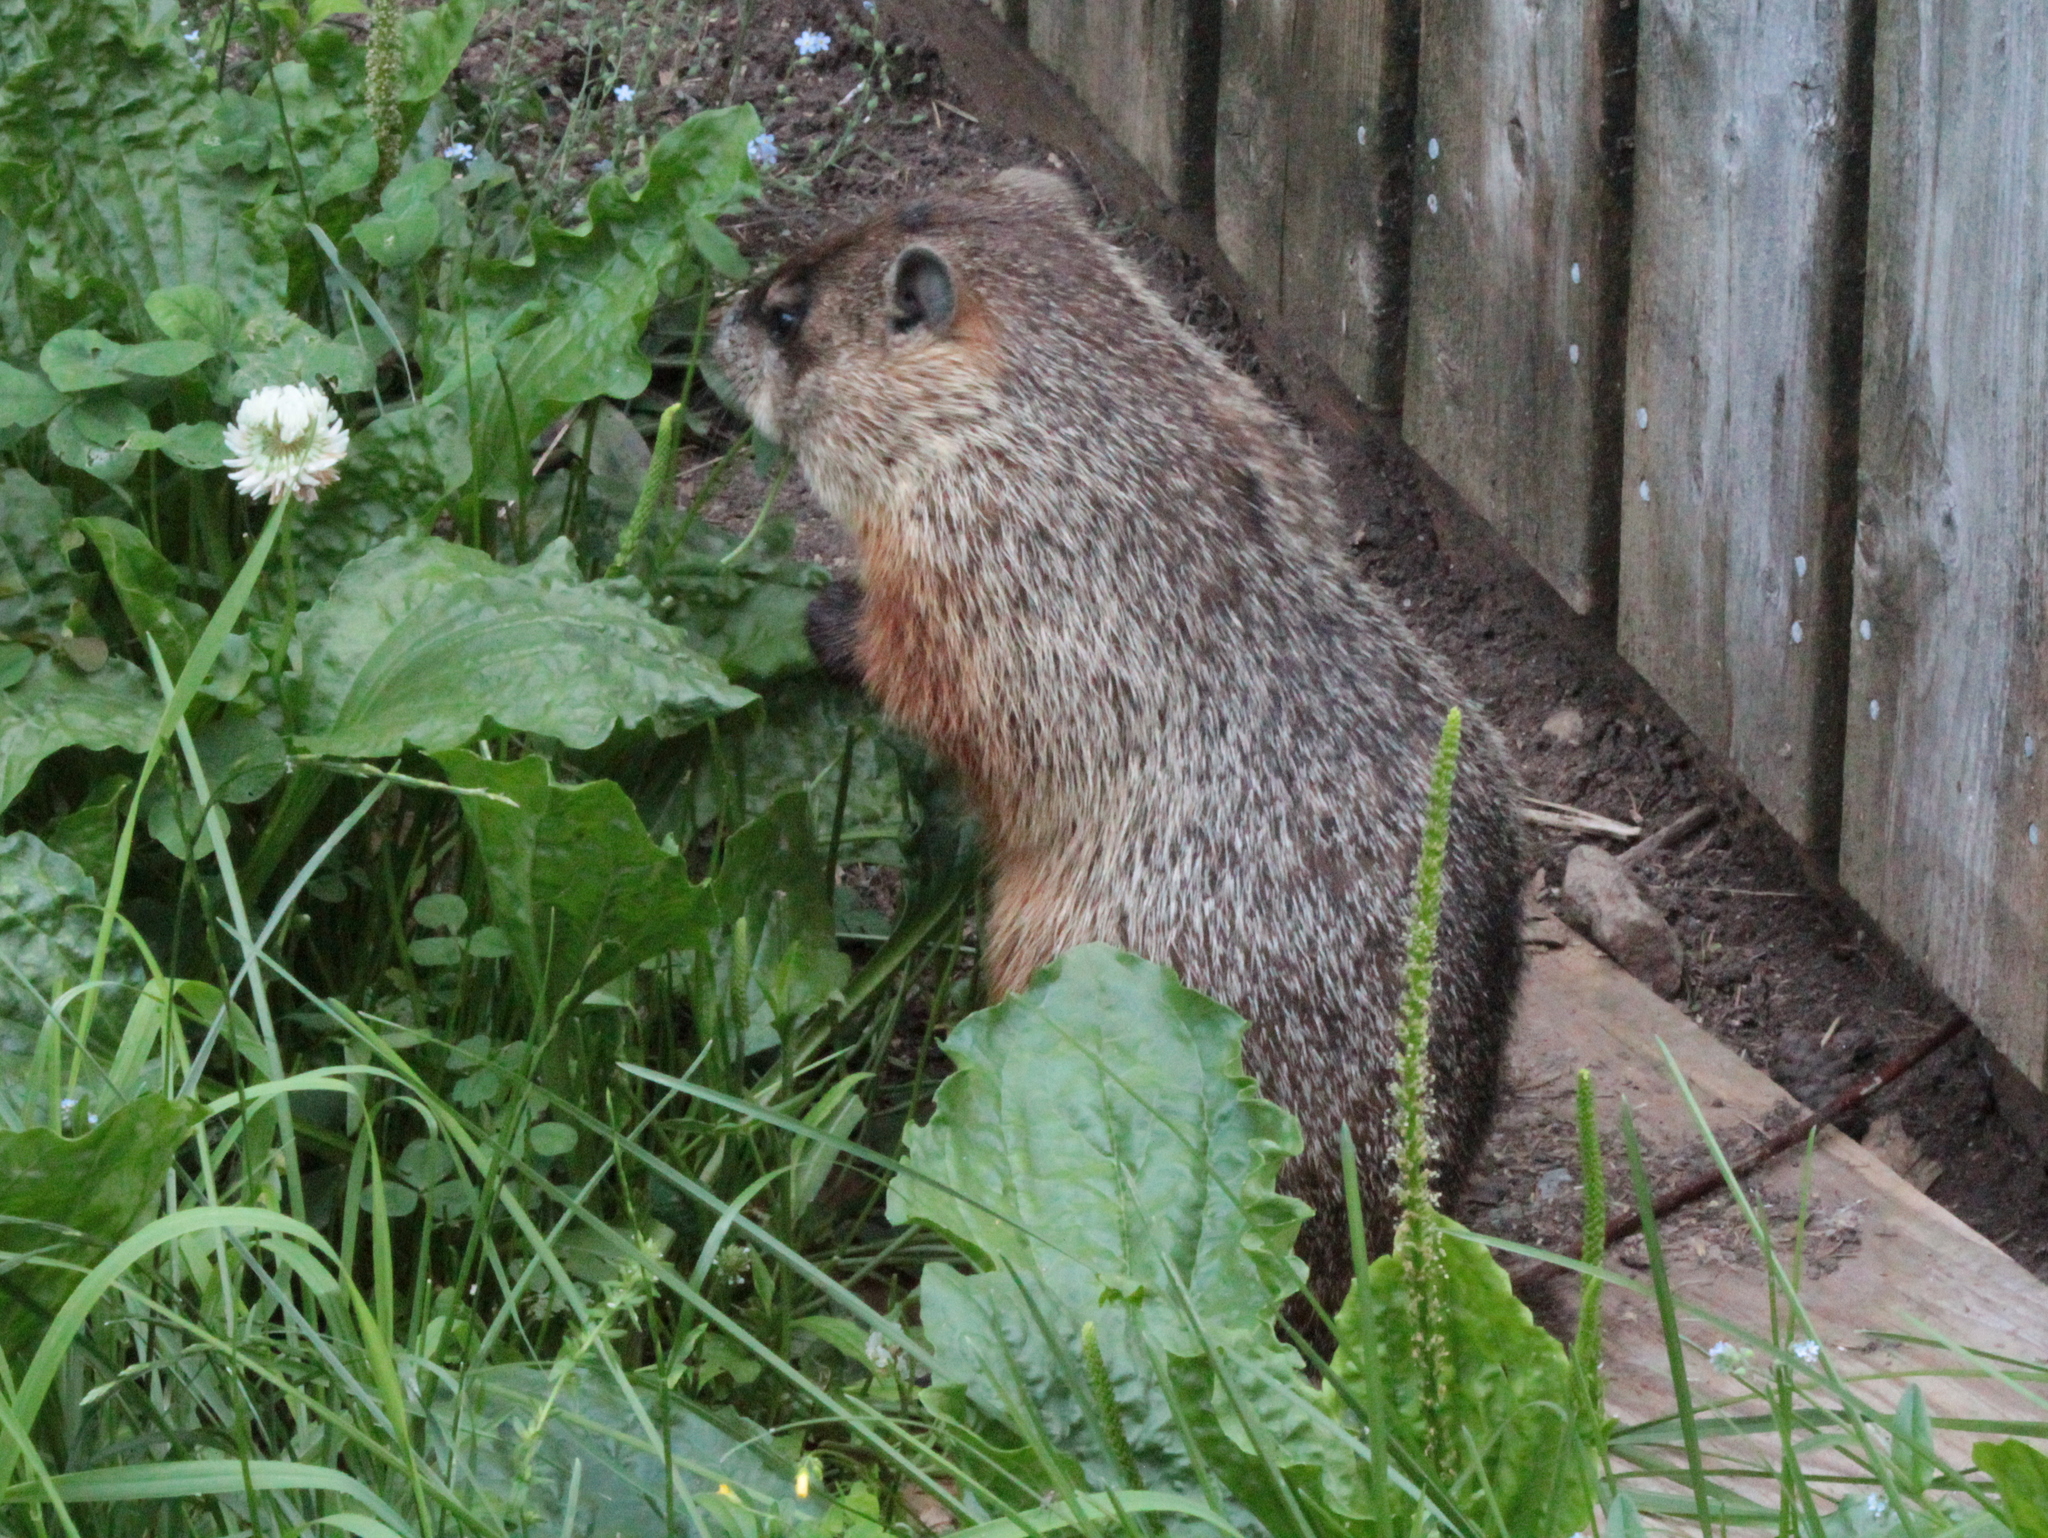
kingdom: Animalia
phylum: Chordata
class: Mammalia
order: Rodentia
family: Sciuridae
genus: Marmota
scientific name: Marmota monax
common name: Groundhog
